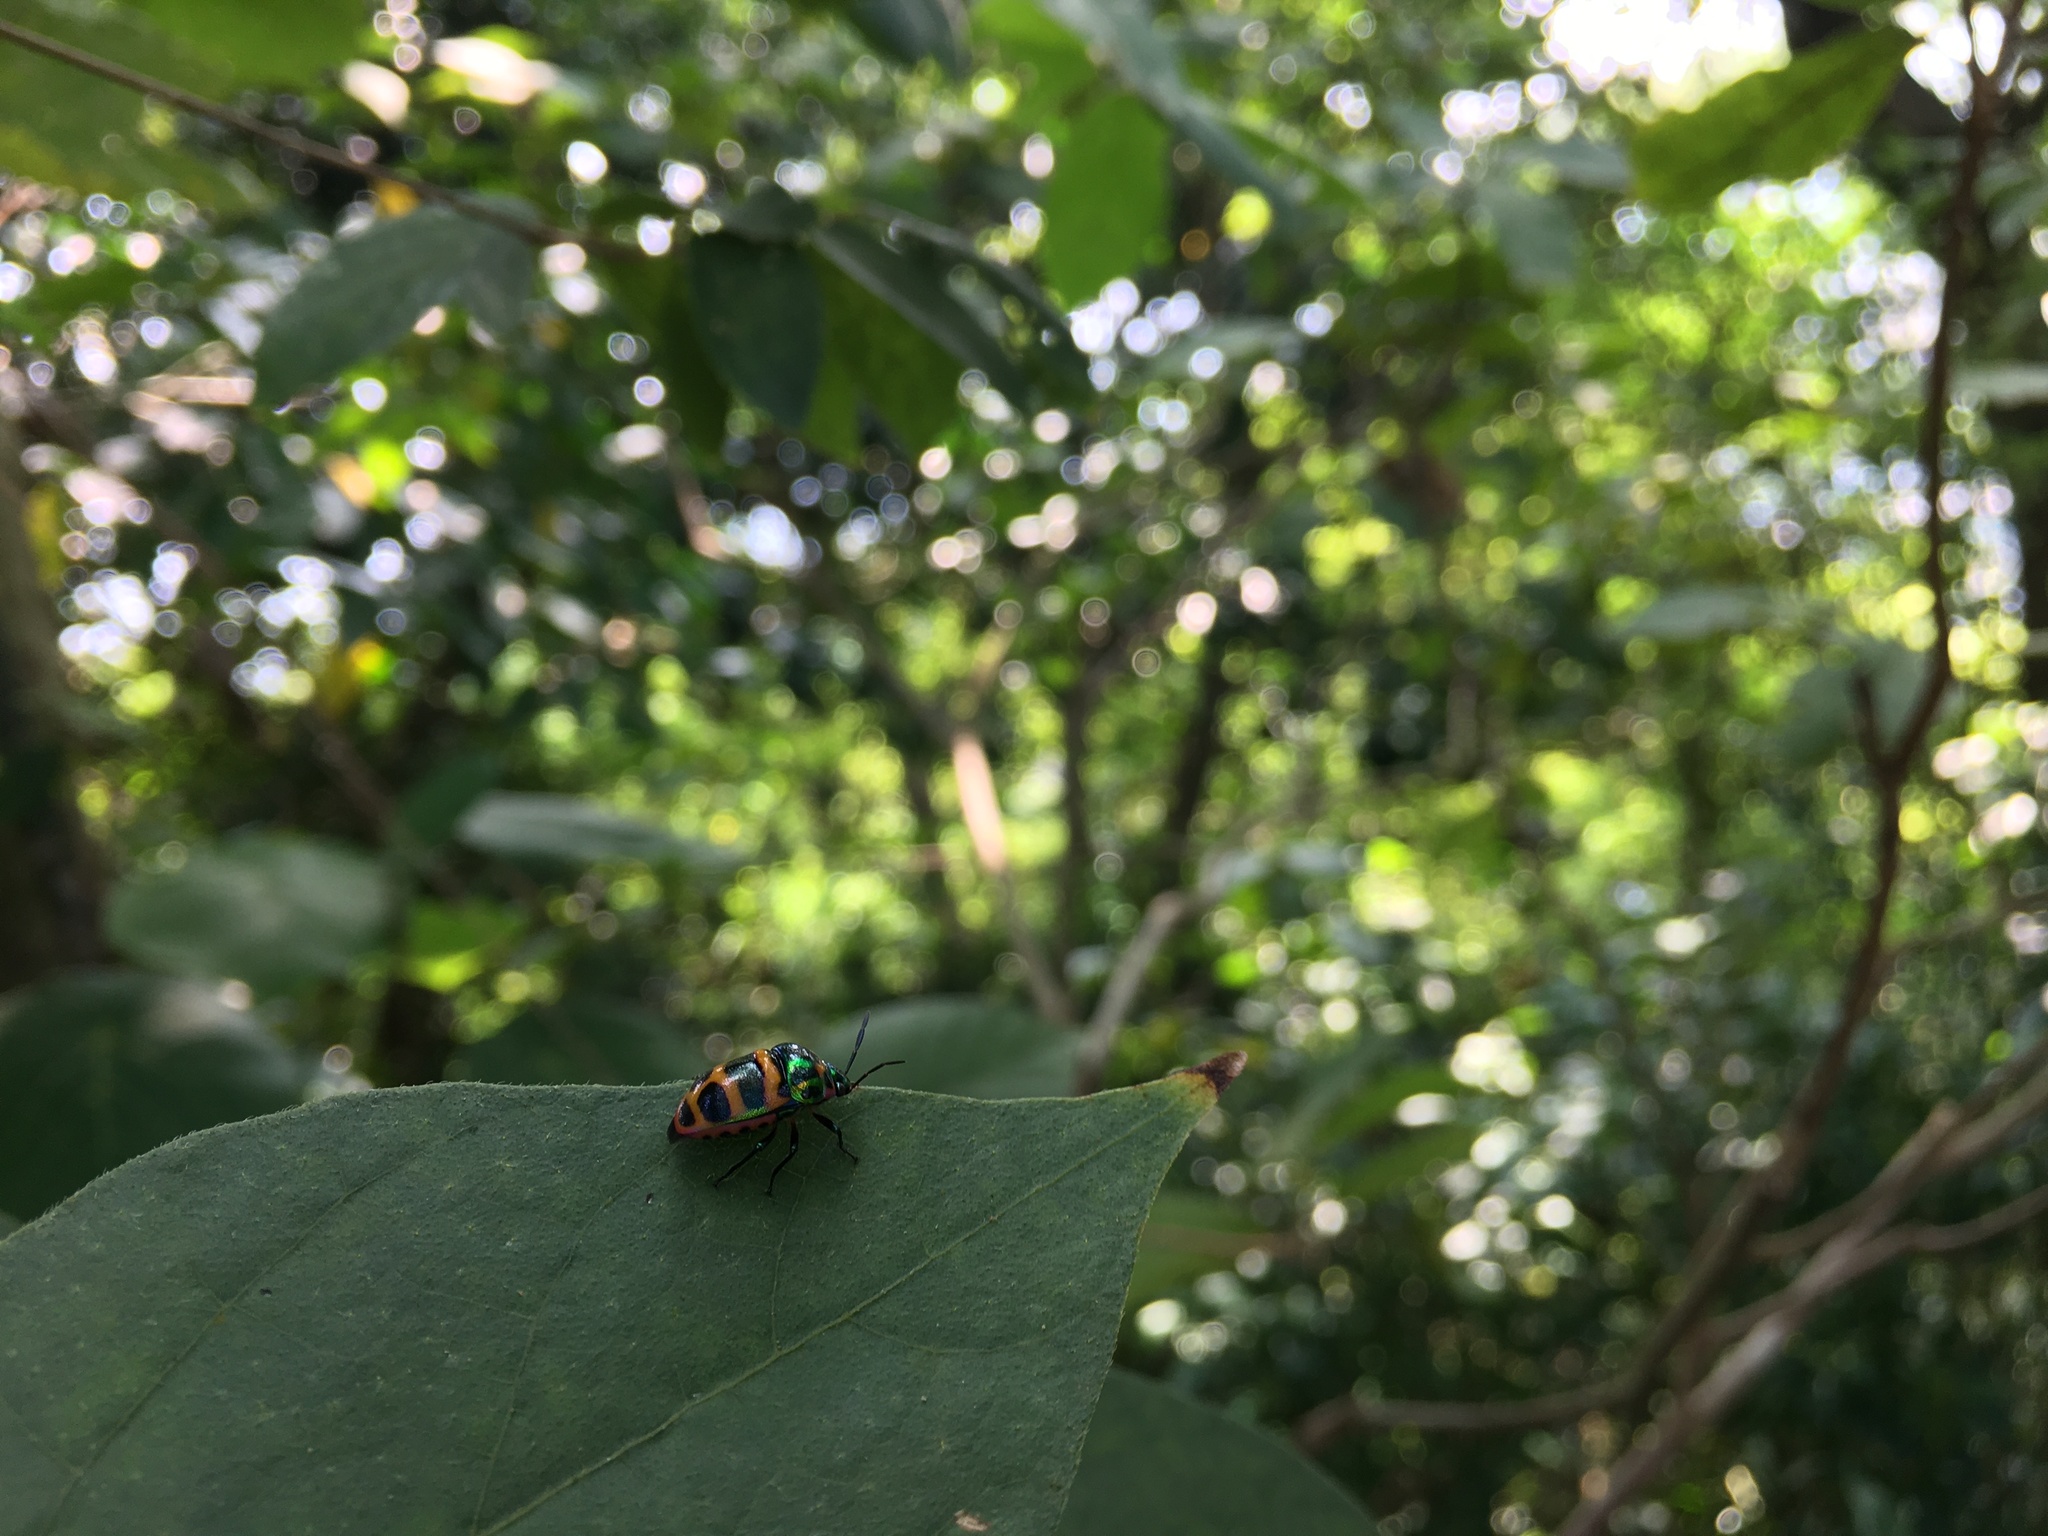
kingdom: Animalia
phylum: Arthropoda
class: Insecta
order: Hemiptera
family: Scutelleridae
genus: Chrysocoris
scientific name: Chrysocoris fascialis
